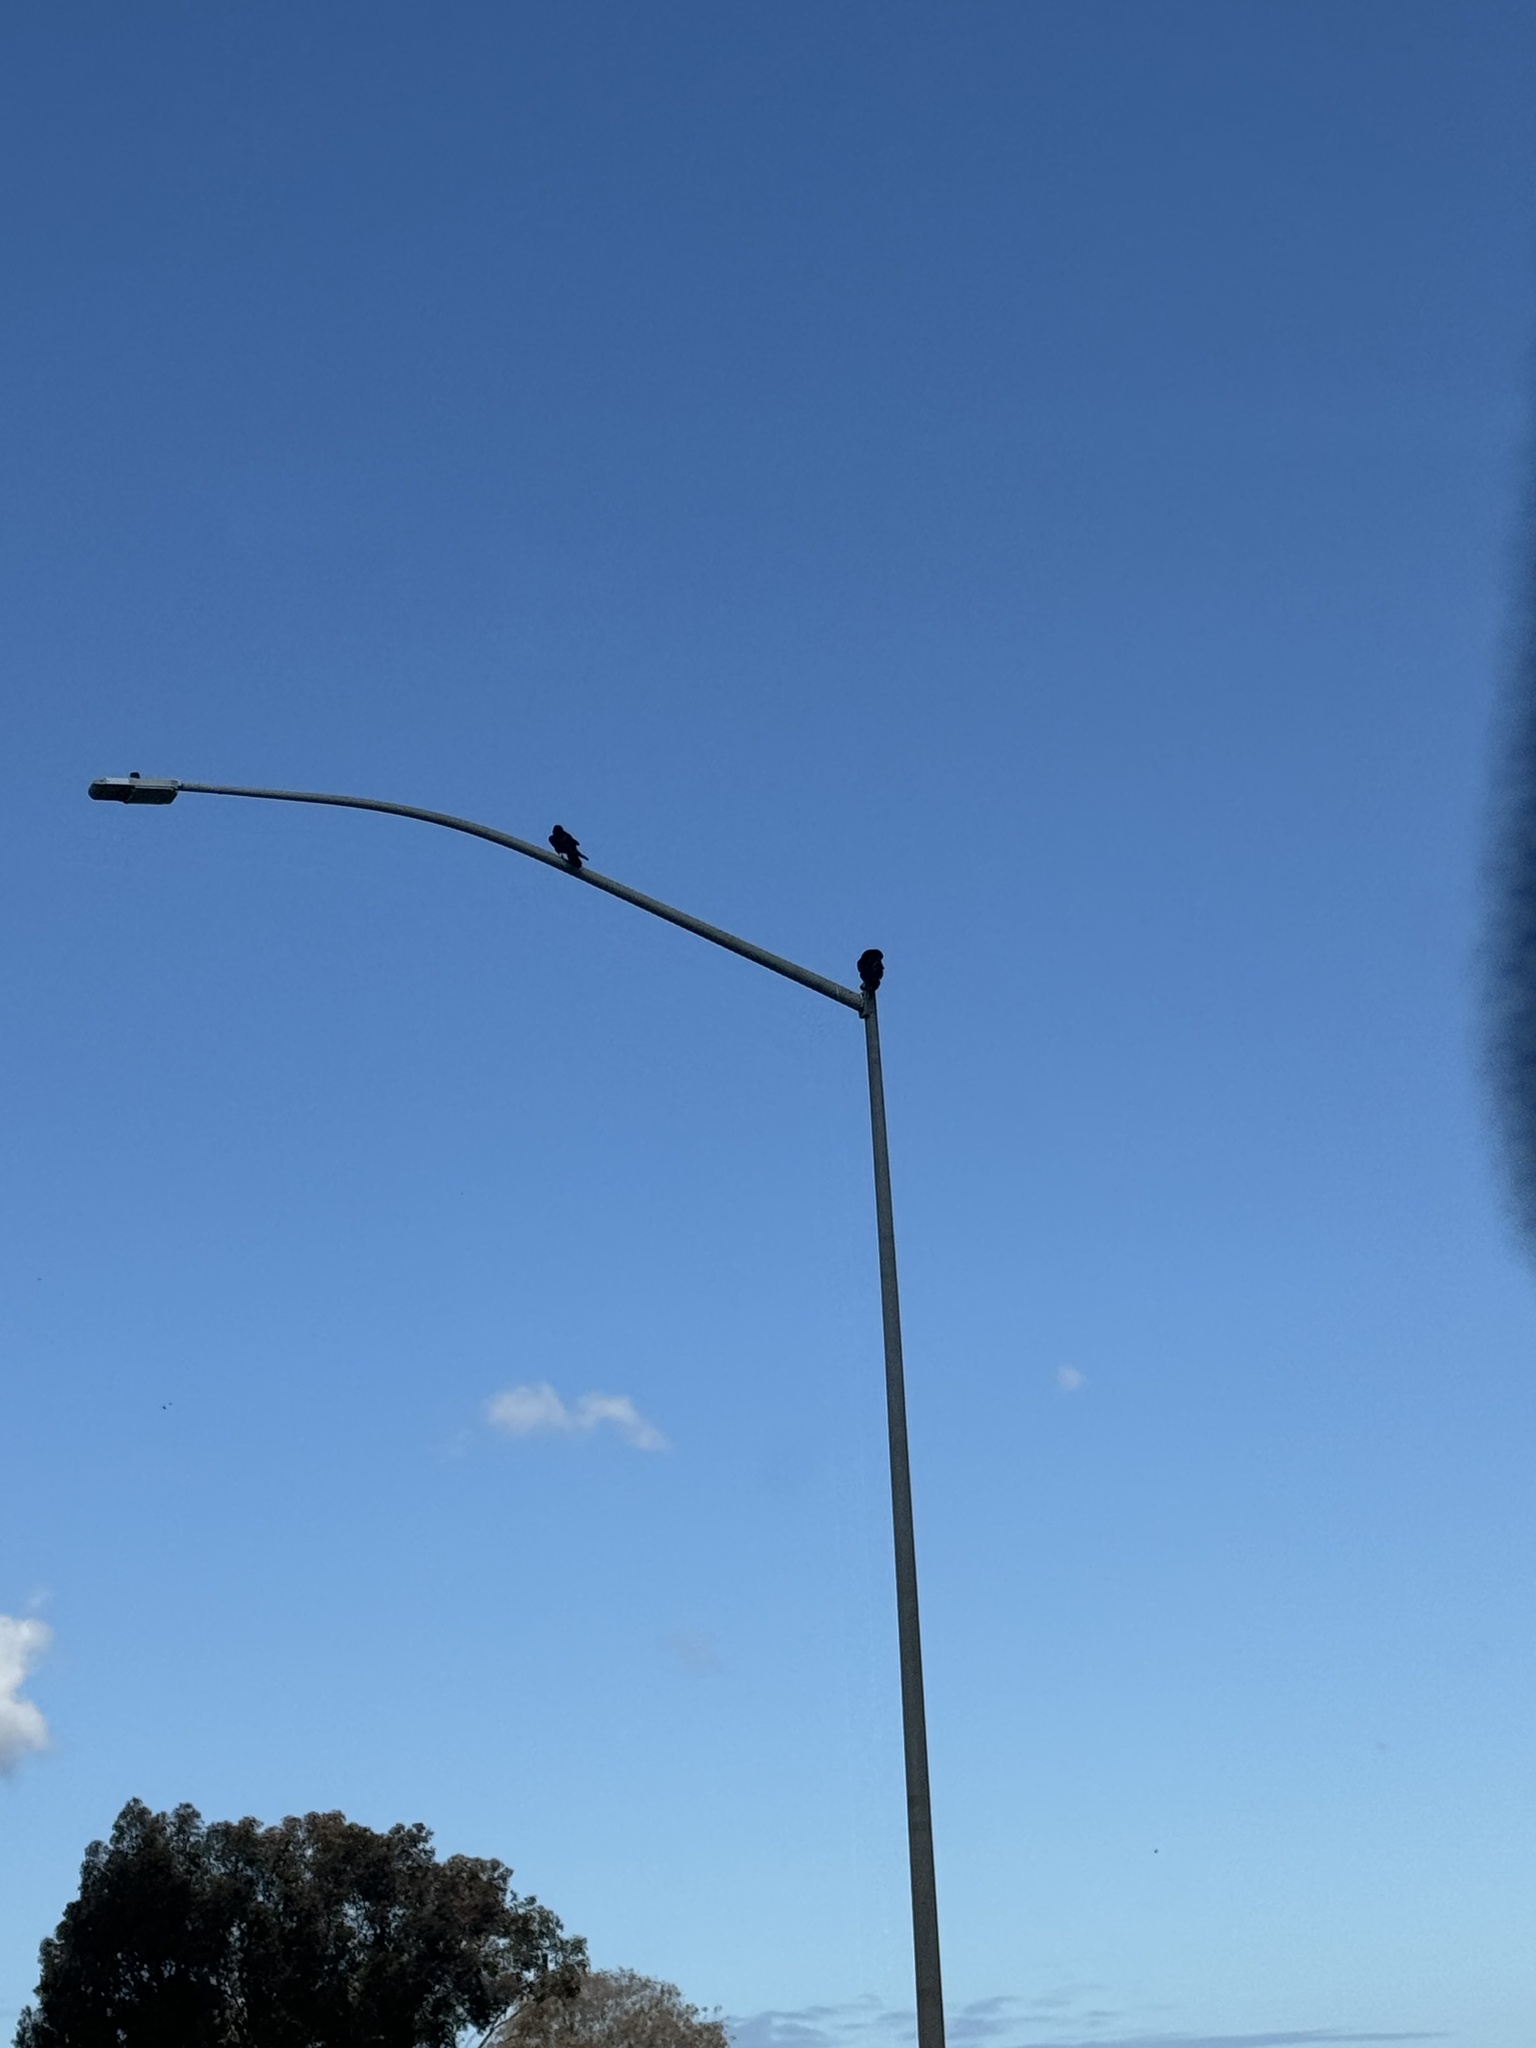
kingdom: Animalia
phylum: Chordata
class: Aves
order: Passeriformes
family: Corvidae
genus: Corvus
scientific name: Corvus corax
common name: Common raven
